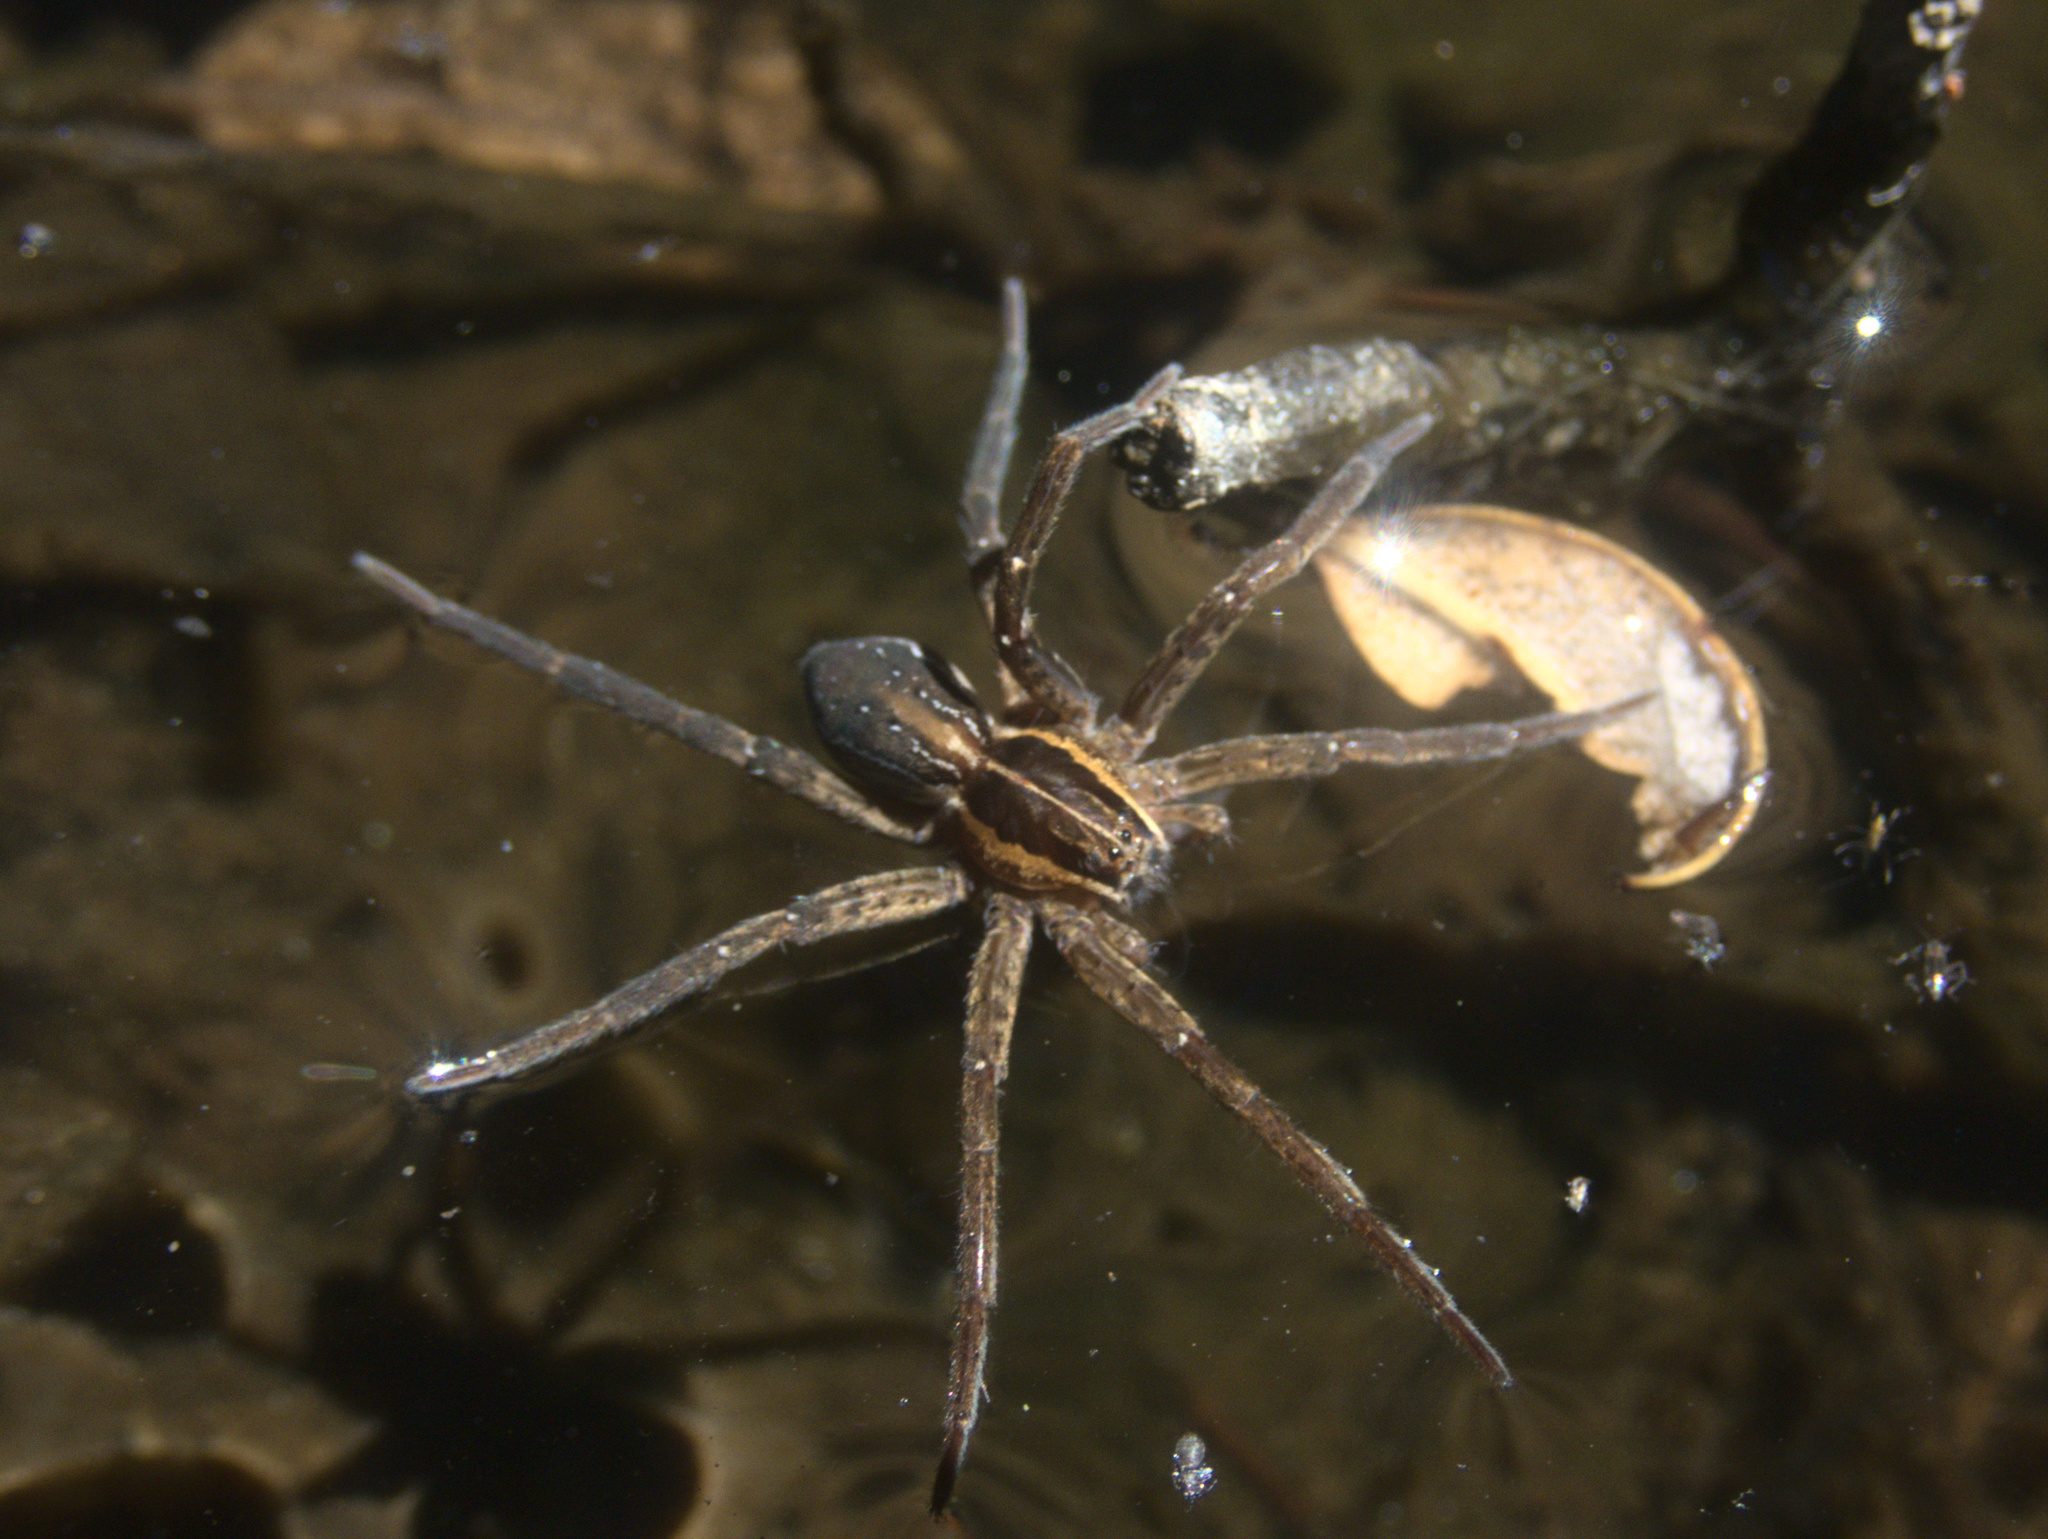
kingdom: Animalia
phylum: Arthropoda
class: Arachnida
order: Araneae
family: Pisauridae
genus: Dolomedes
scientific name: Dolomedes minor
